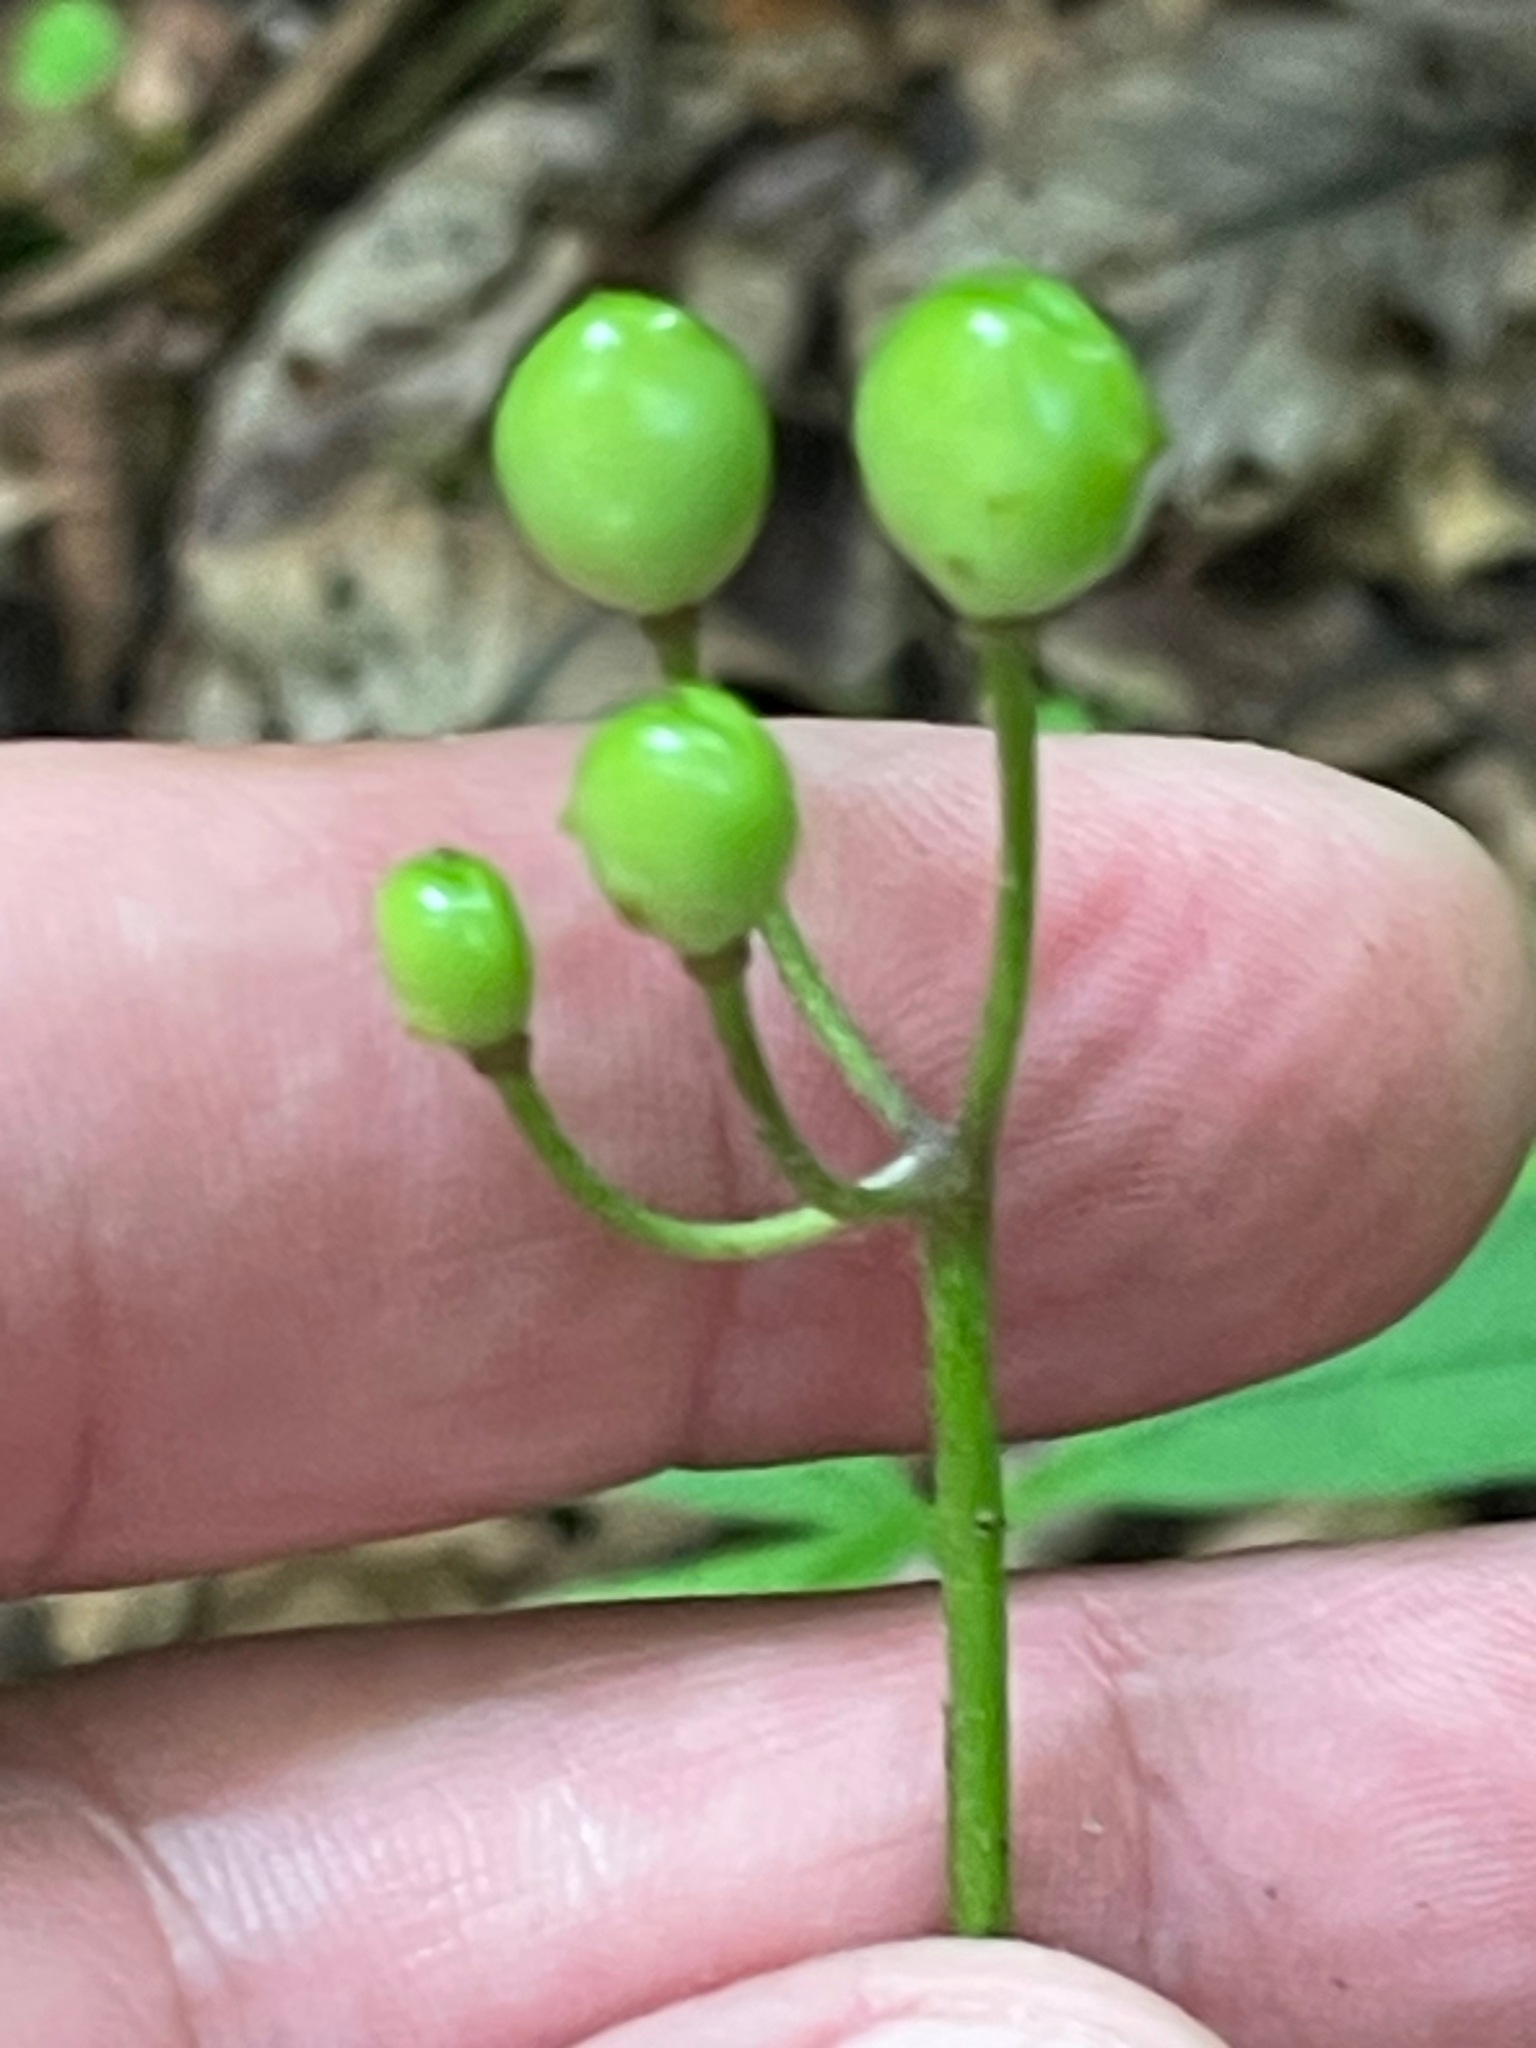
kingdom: Plantae
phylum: Tracheophyta
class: Liliopsida
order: Liliales
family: Liliaceae
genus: Clintonia
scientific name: Clintonia borealis
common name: Yellow clintonia
